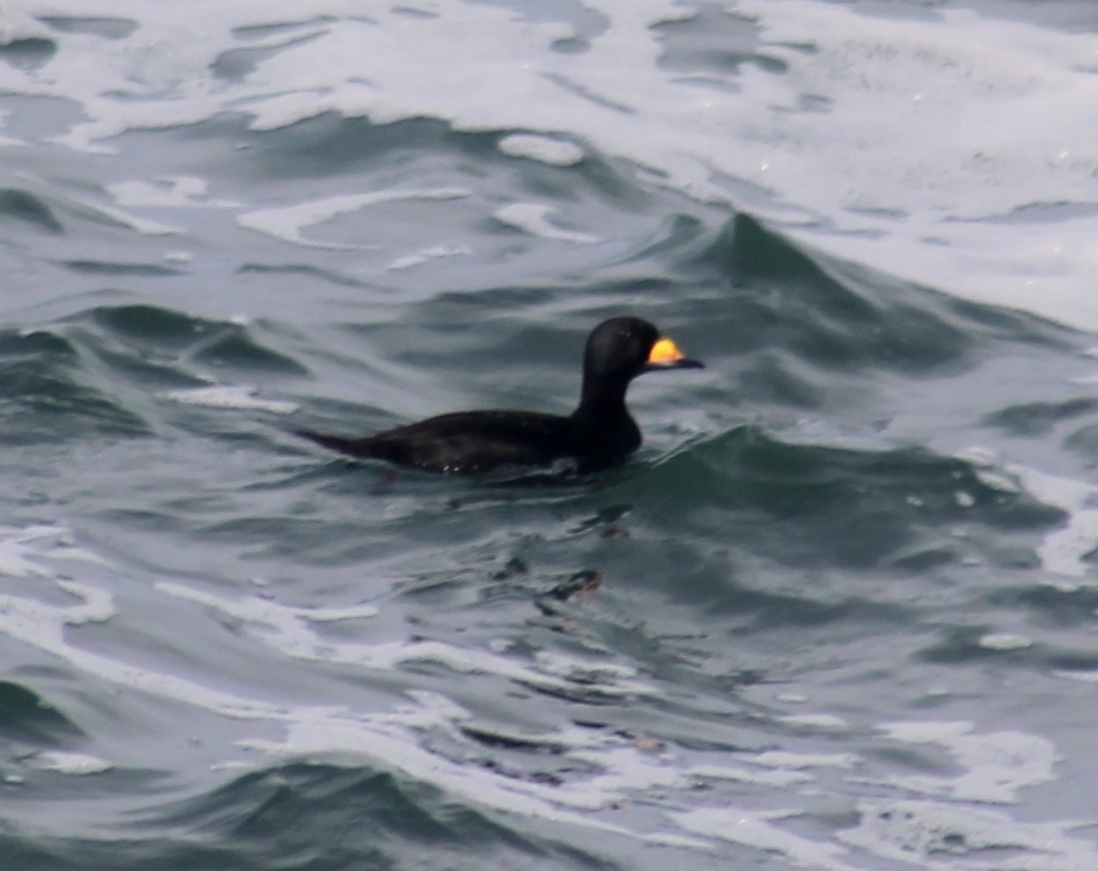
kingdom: Animalia
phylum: Chordata
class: Aves
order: Anseriformes
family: Anatidae
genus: Melanitta
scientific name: Melanitta americana
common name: Black scoter
